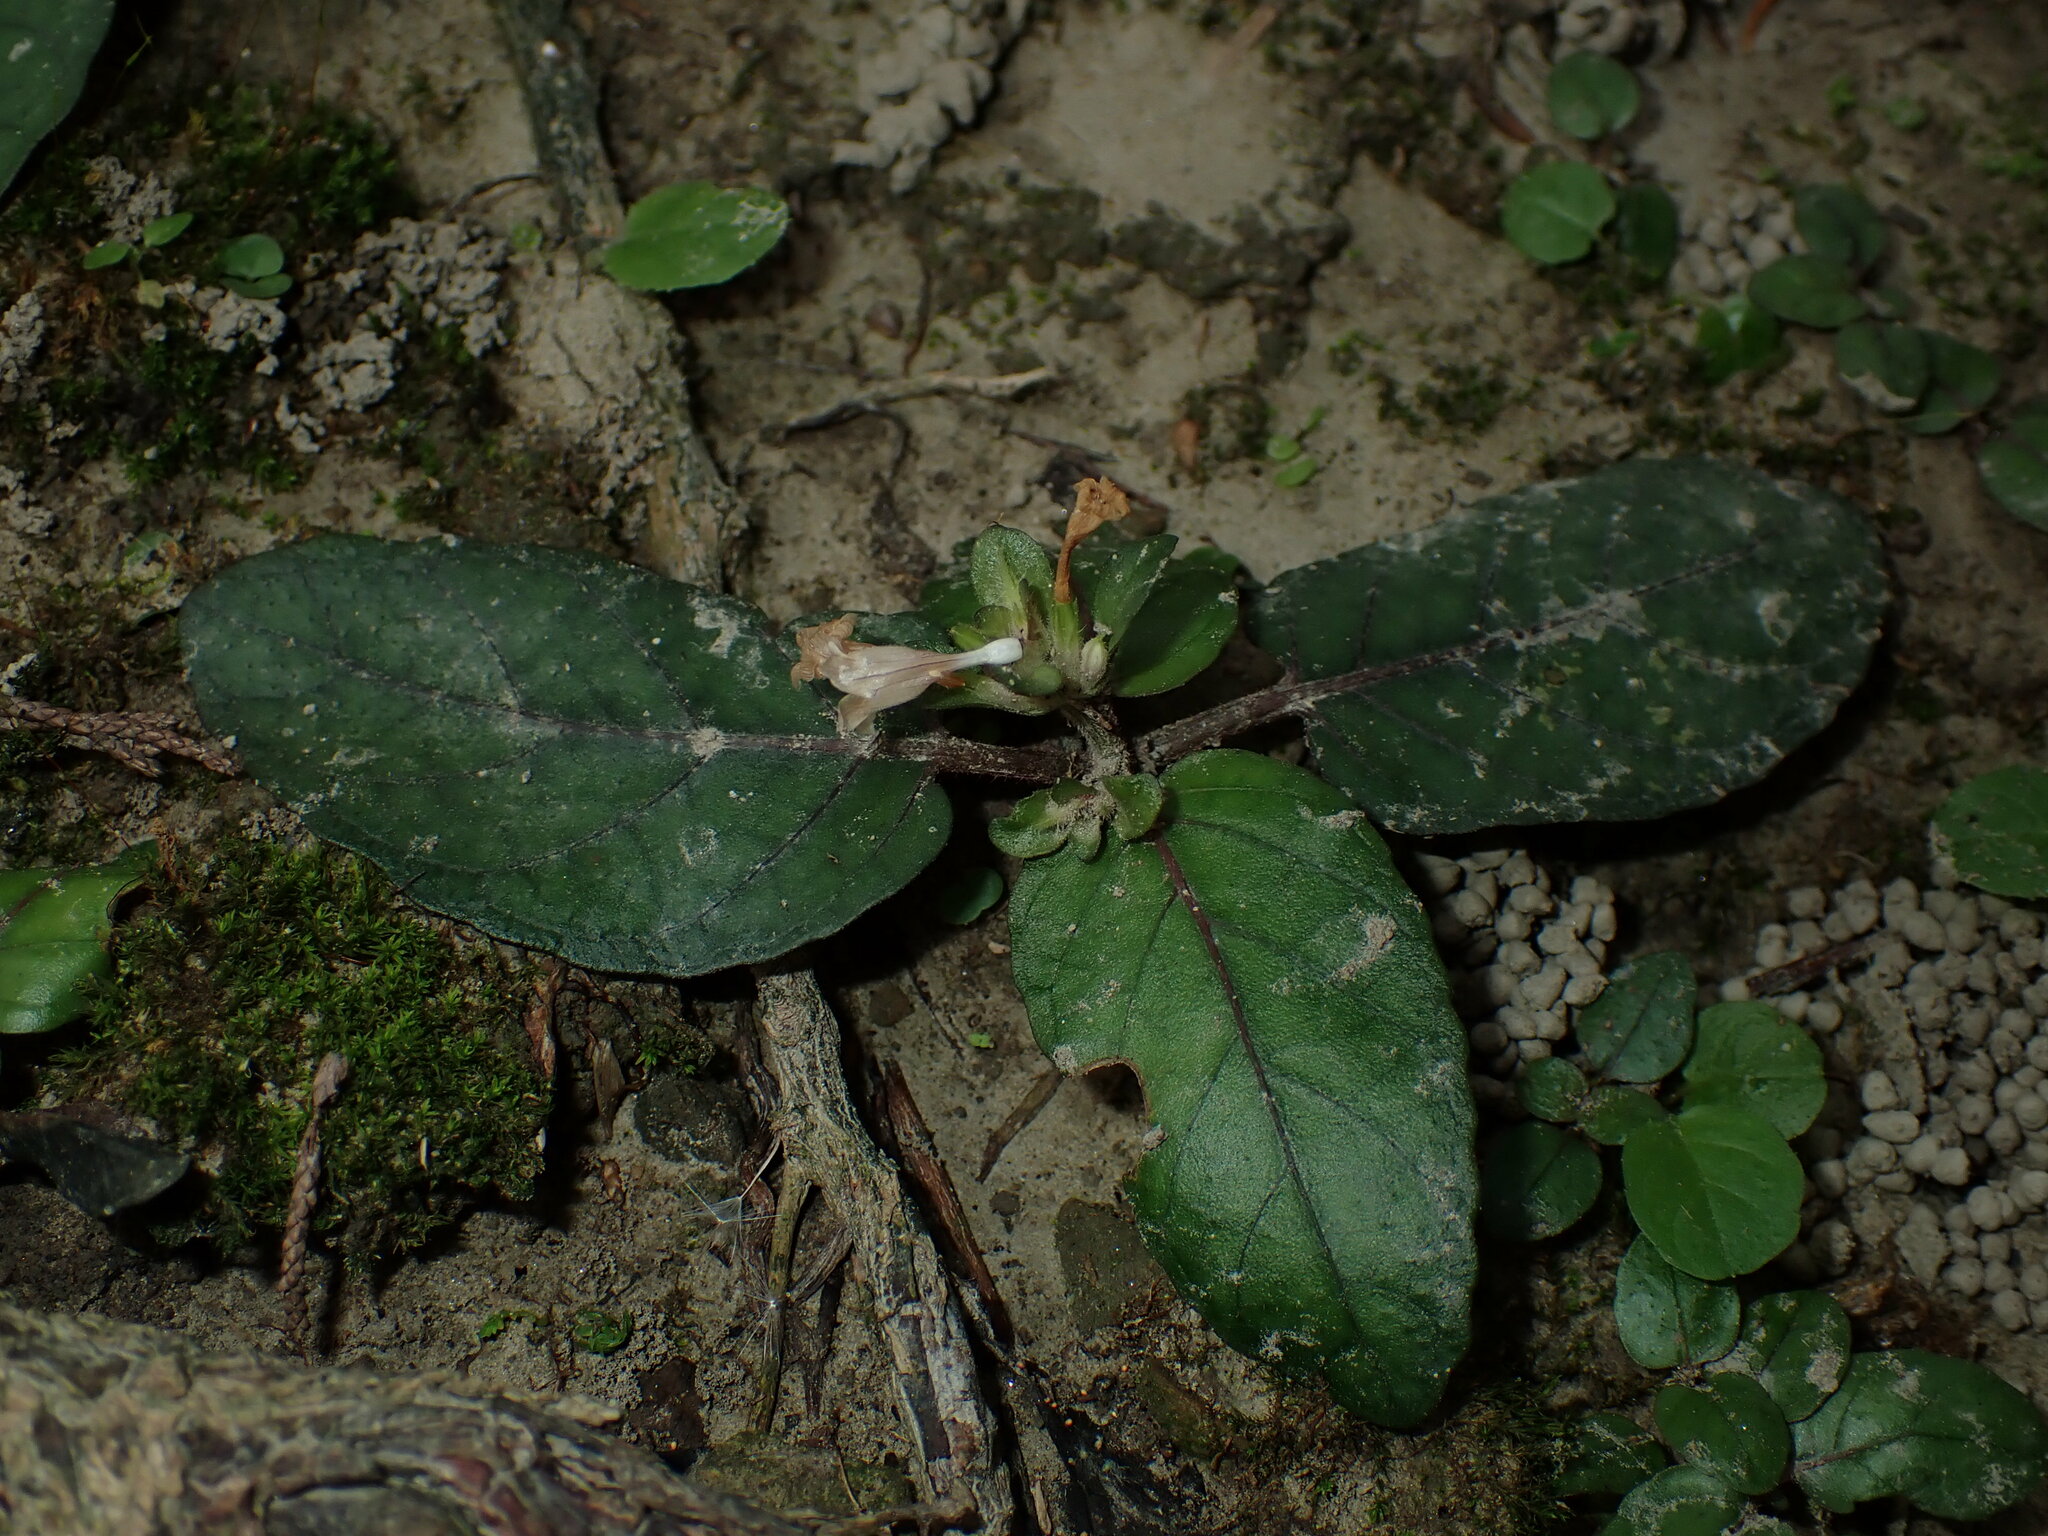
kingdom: Plantae
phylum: Tracheophyta
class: Magnoliopsida
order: Lamiales
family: Acanthaceae
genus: Strobilanthes
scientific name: Strobilanthes reptans
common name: Acanthaceae
